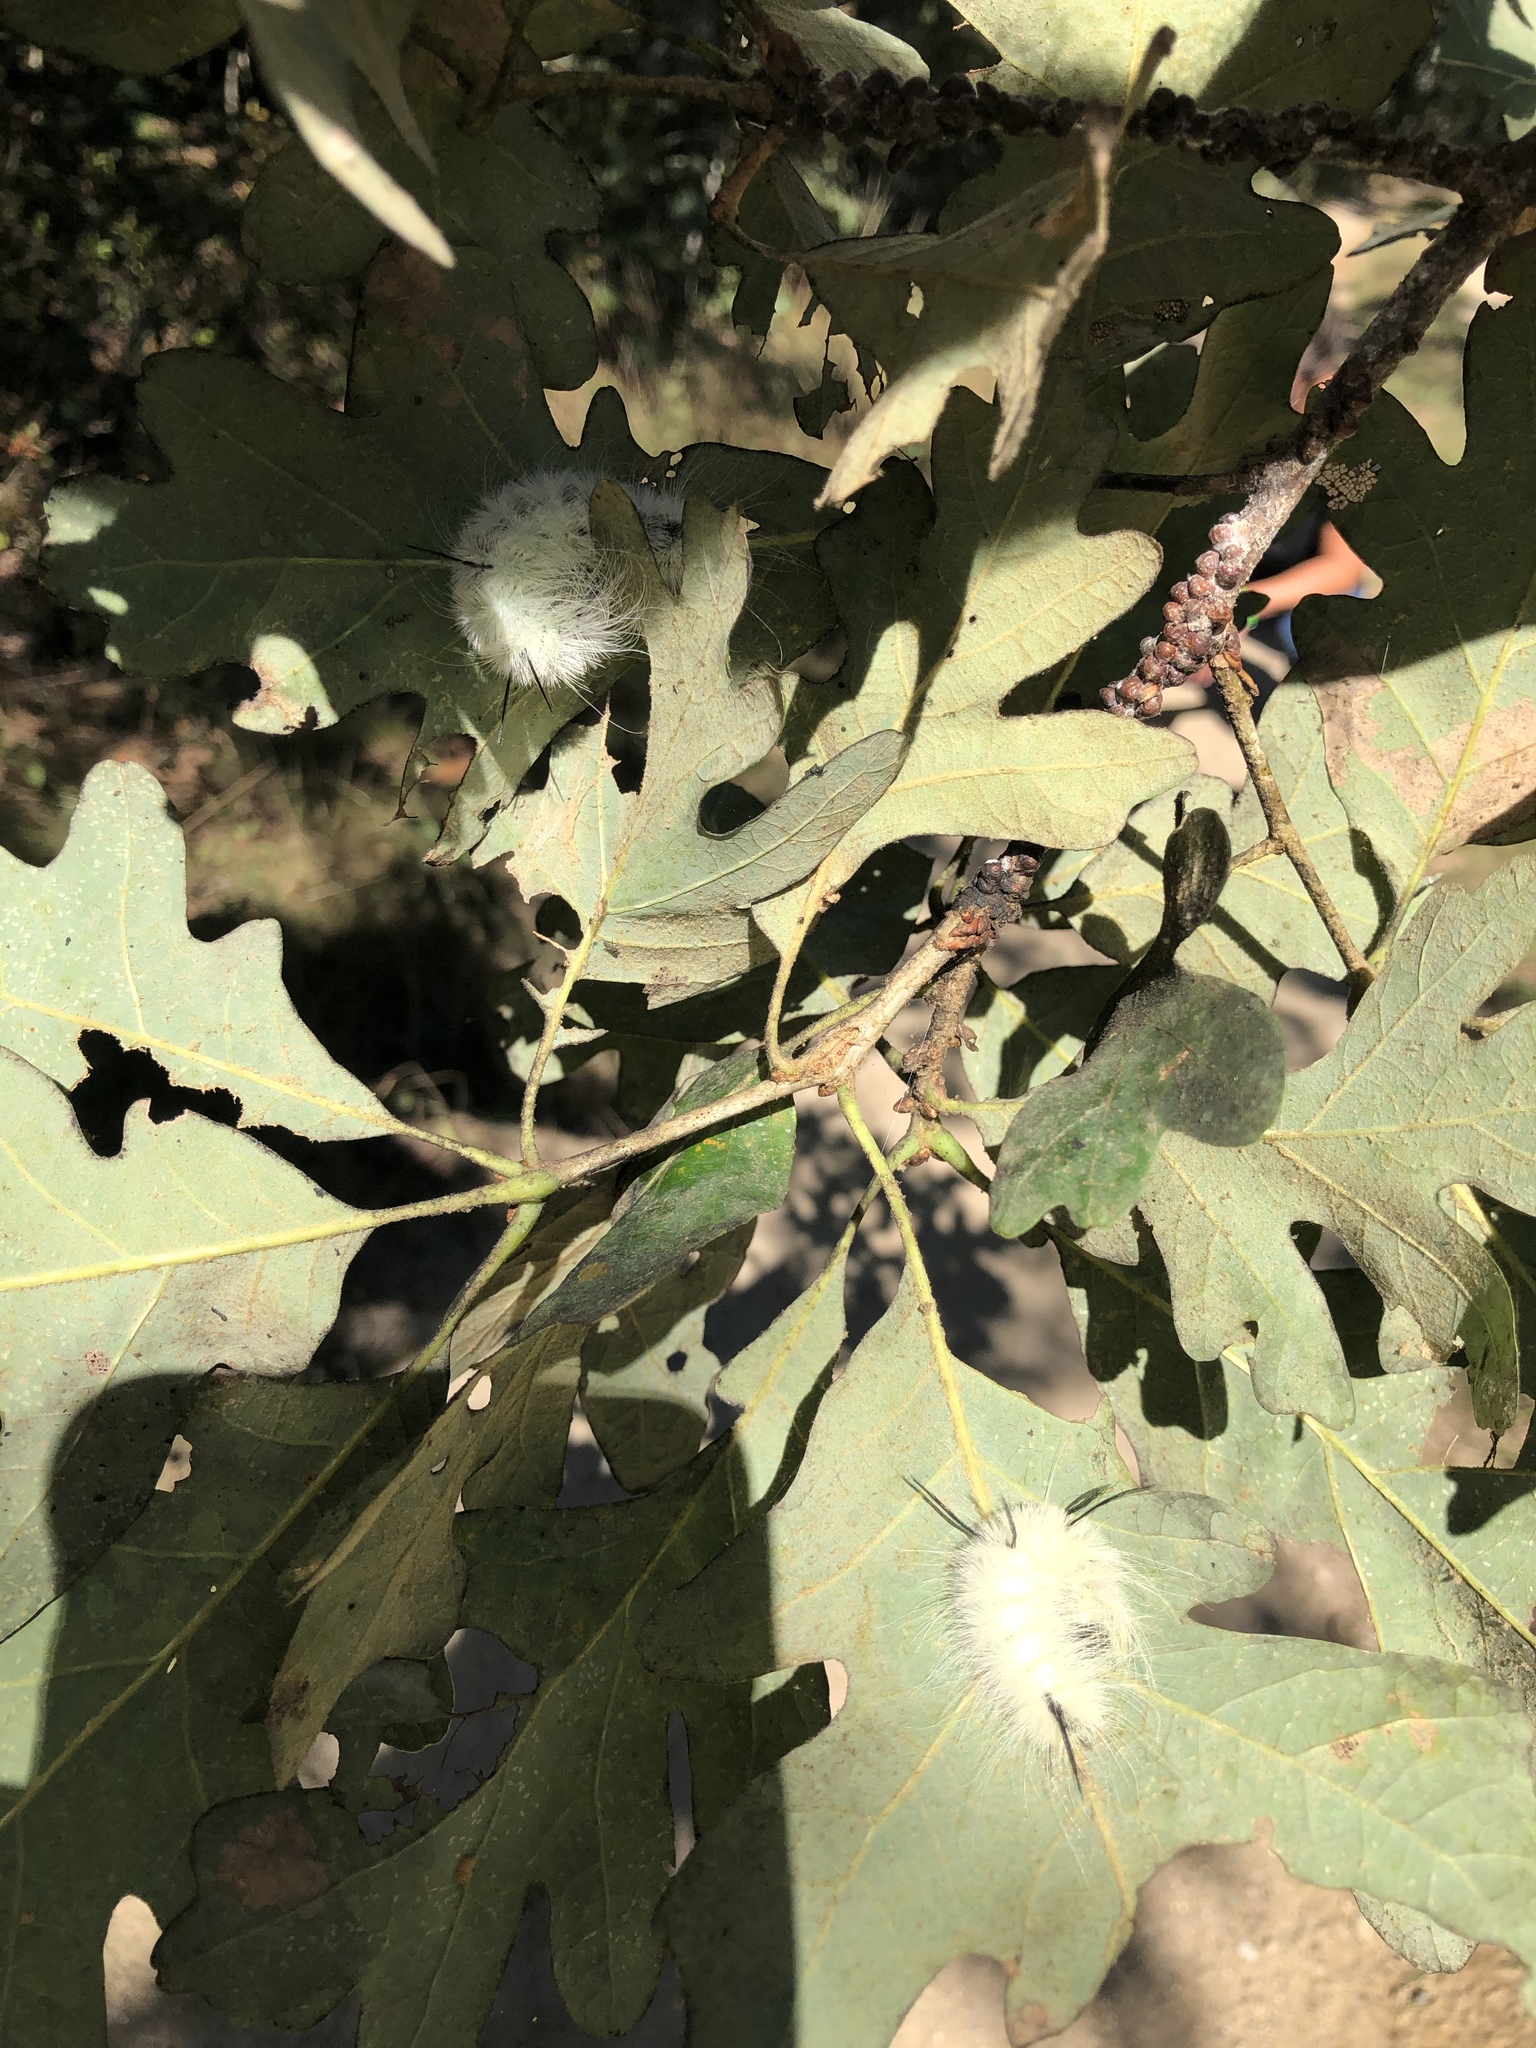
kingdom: Animalia
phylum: Arthropoda
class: Insecta
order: Lepidoptera
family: Noctuidae
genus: Acronicta
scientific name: Acronicta americana
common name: American dagger
